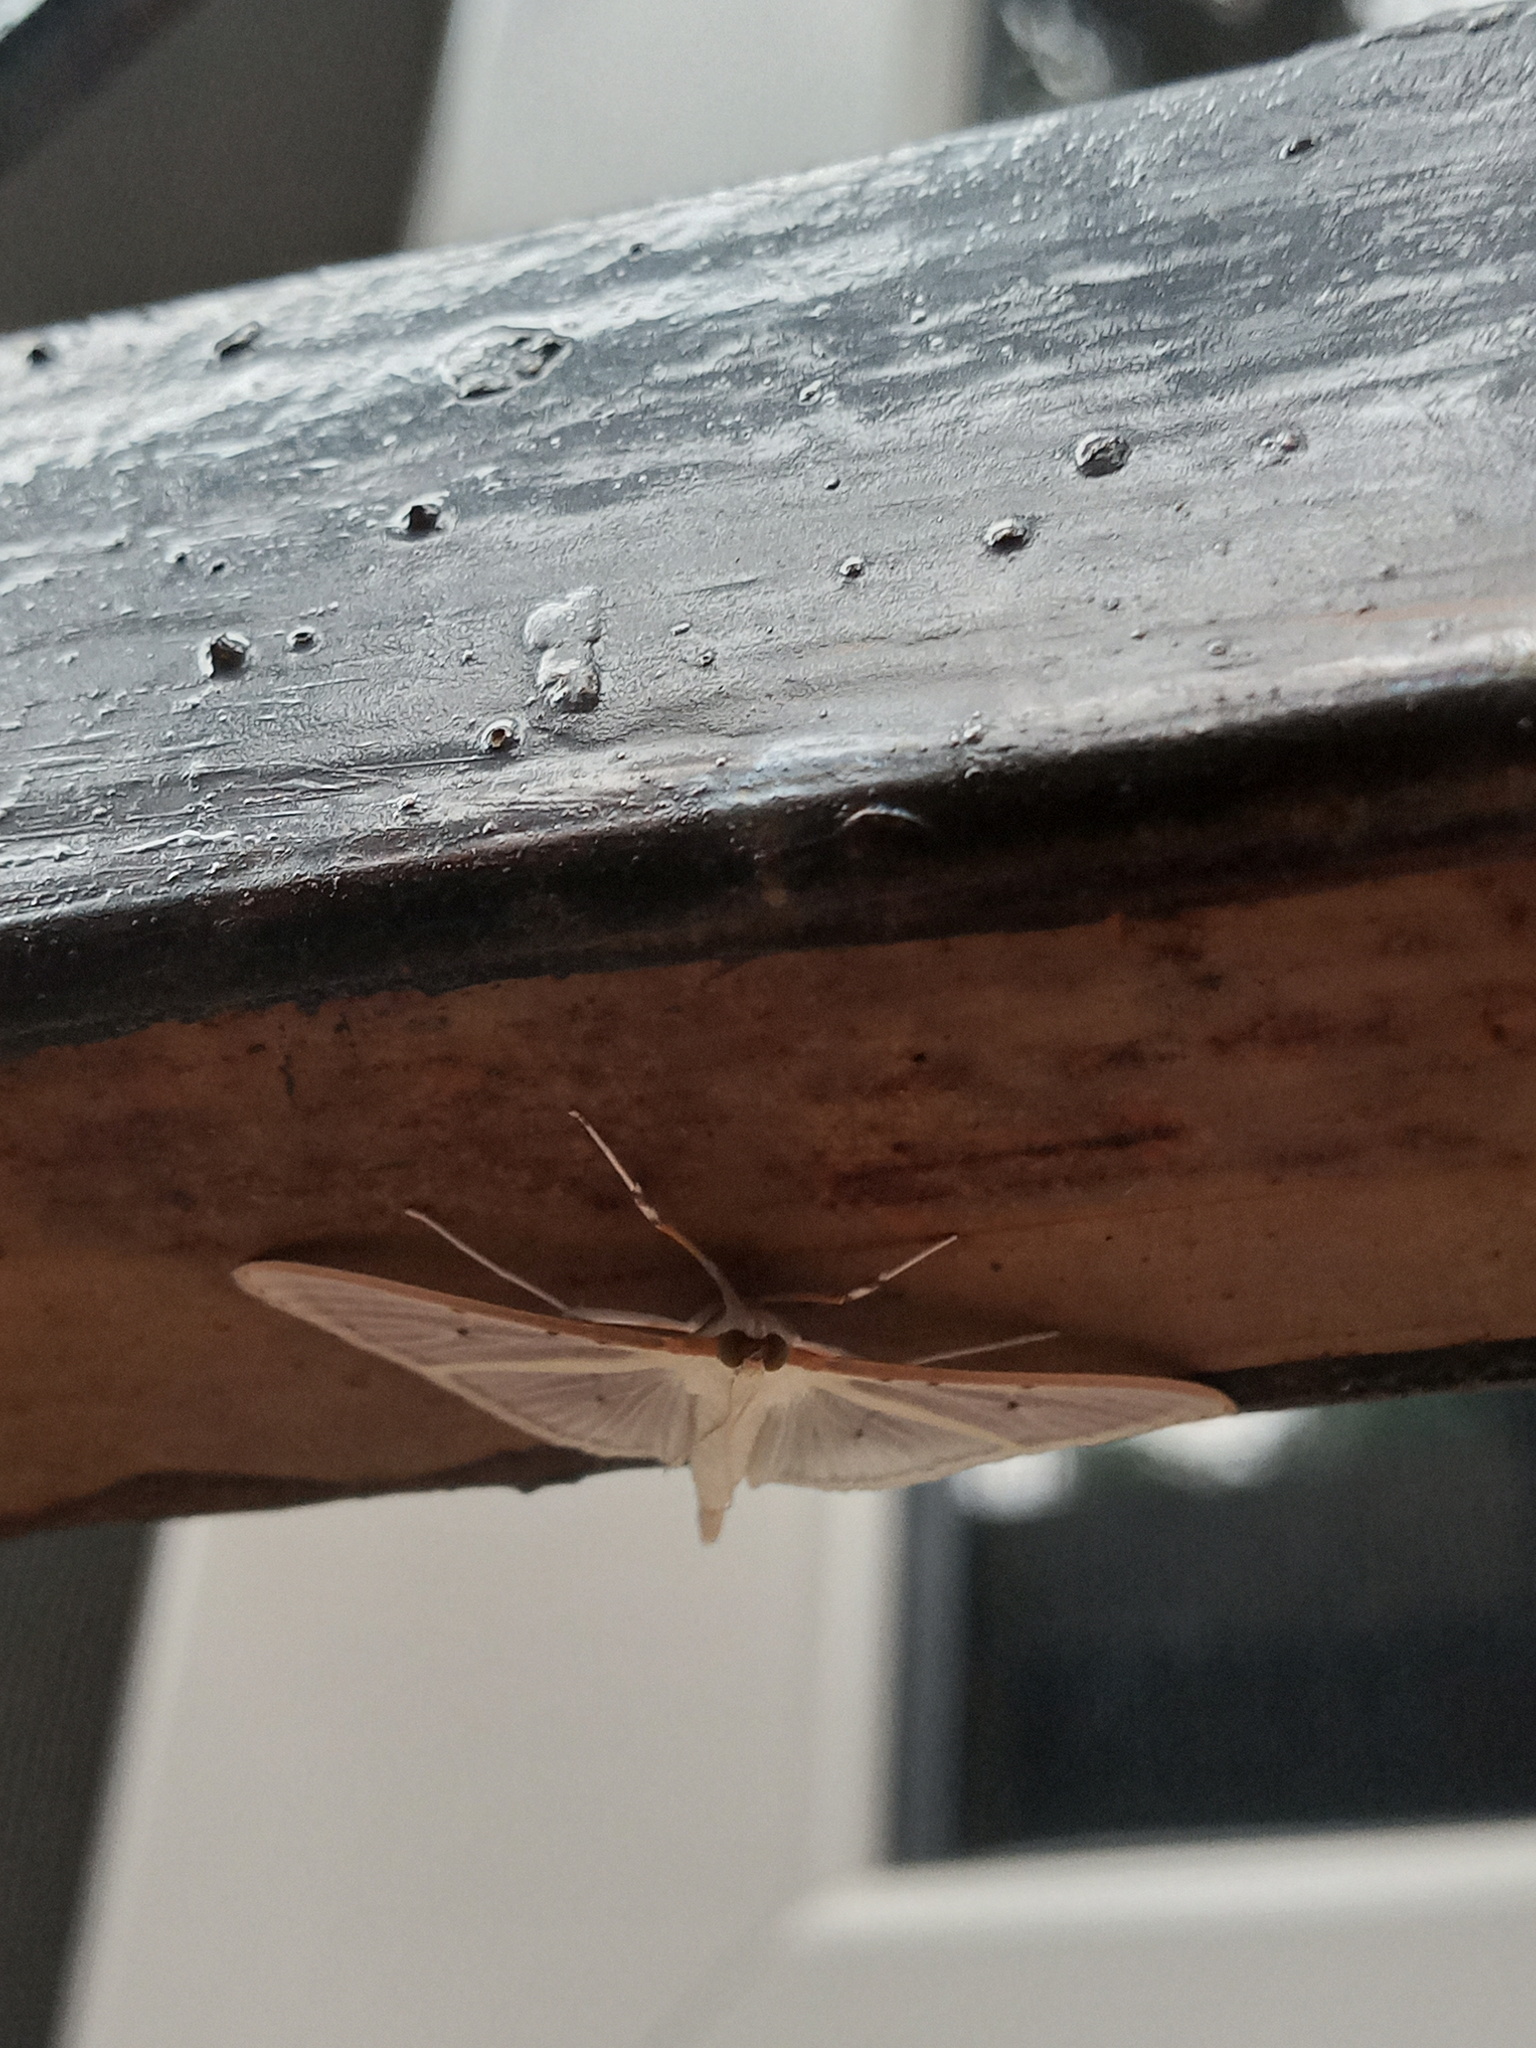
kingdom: Animalia
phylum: Arthropoda
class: Insecta
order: Lepidoptera
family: Crambidae
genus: Palpita
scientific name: Palpita quadristigmalis
